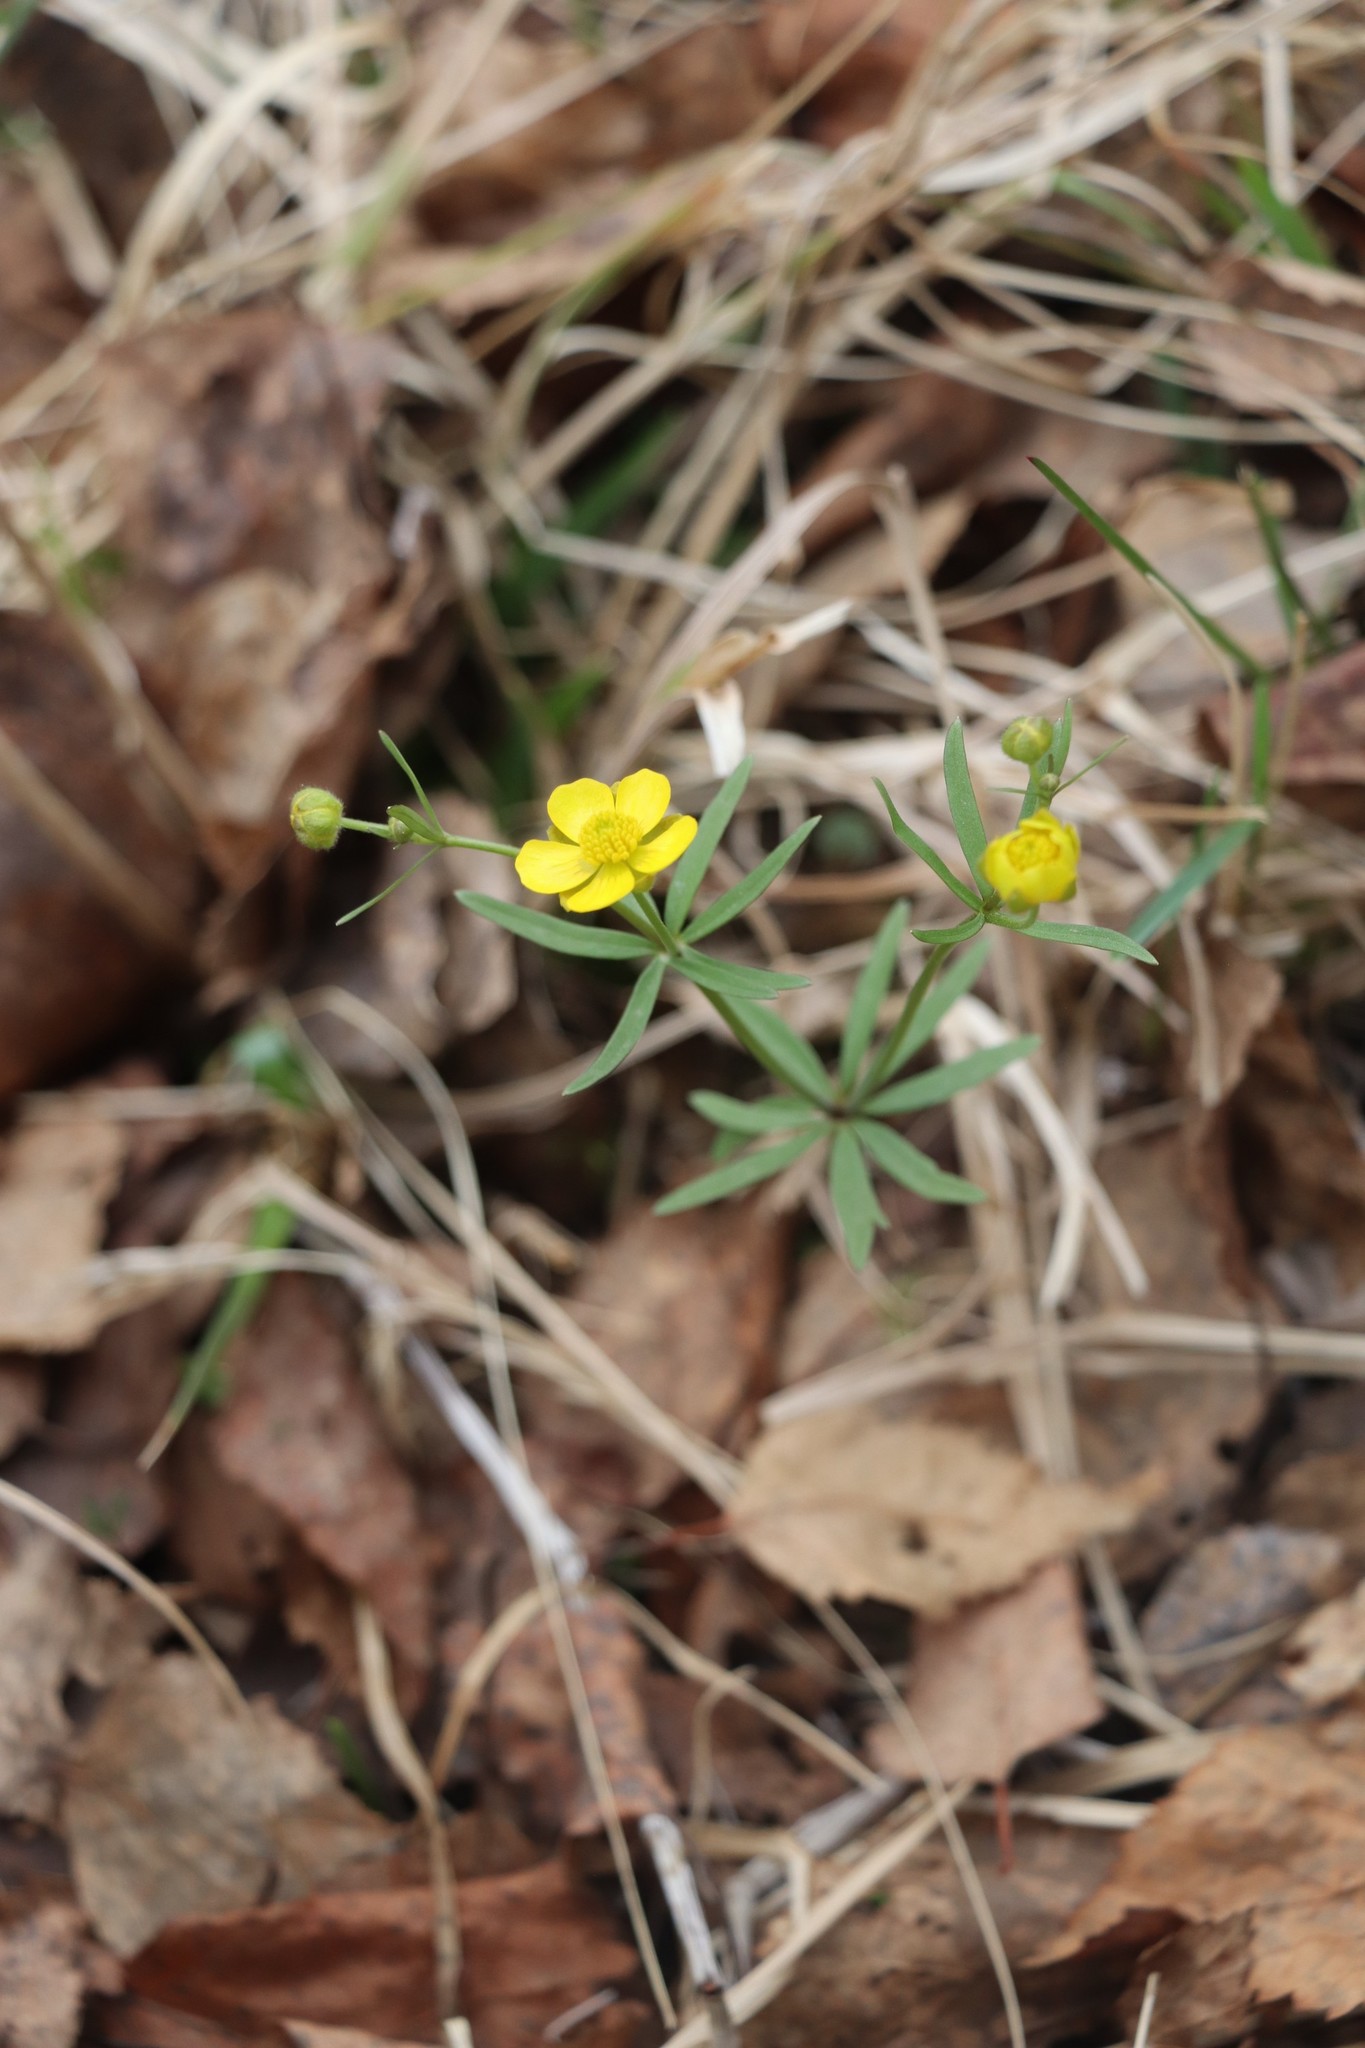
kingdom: Plantae
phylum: Tracheophyta
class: Magnoliopsida
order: Ranunculales
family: Ranunculaceae
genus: Ranunculus
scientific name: Ranunculus monophyllus
